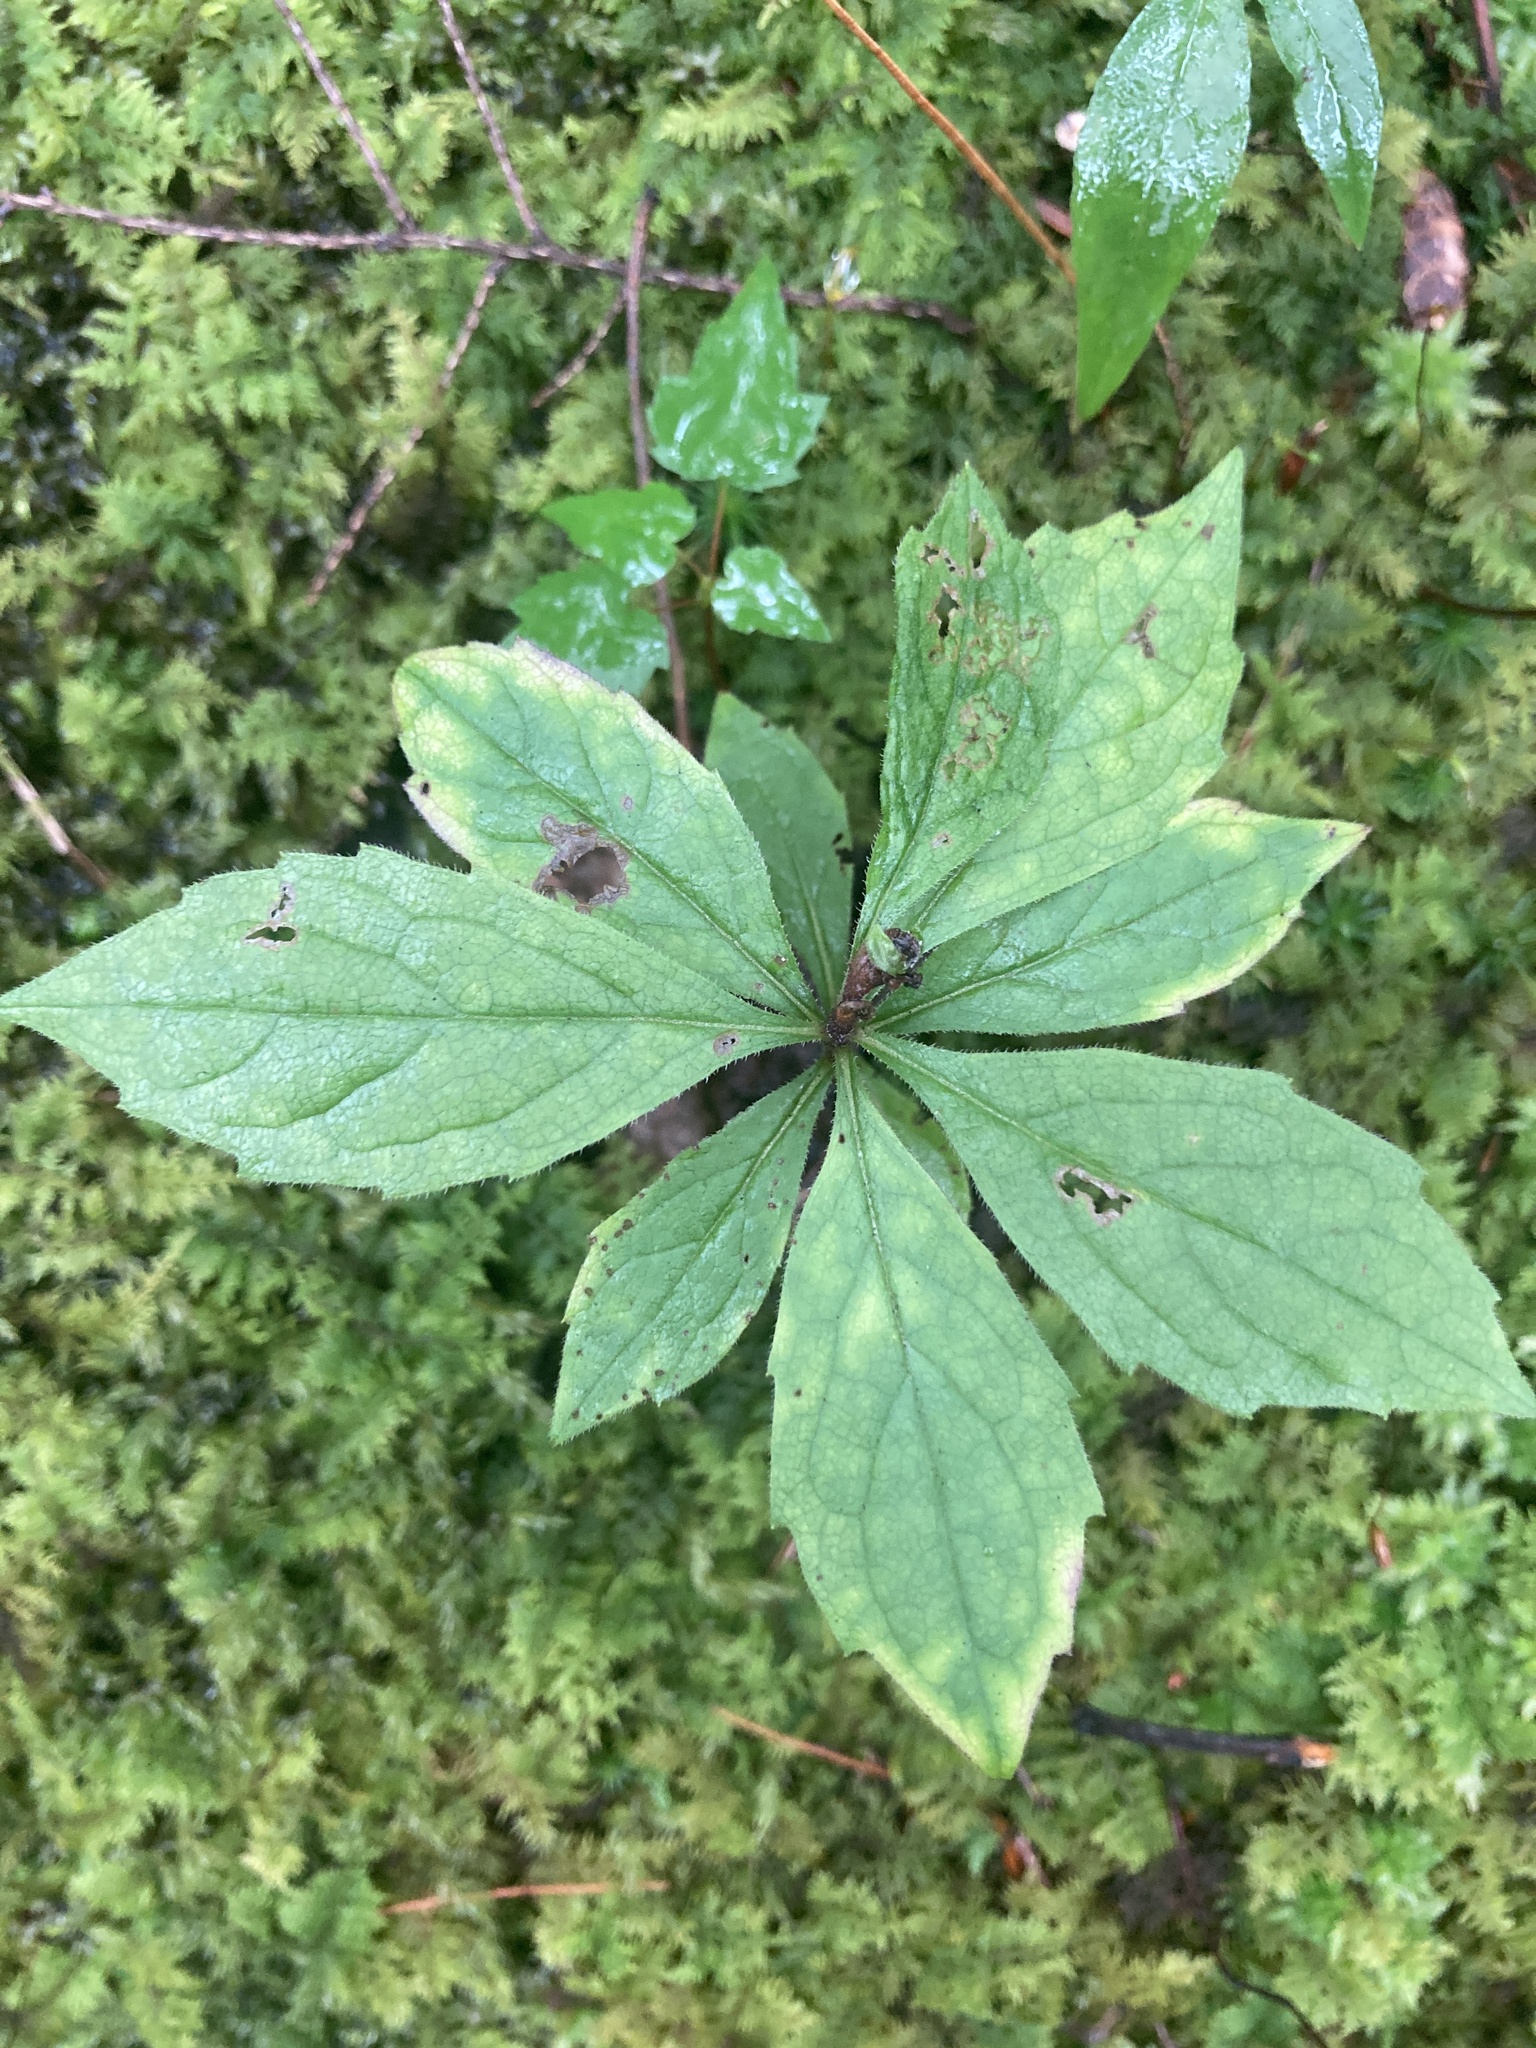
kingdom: Plantae
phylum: Tracheophyta
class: Magnoliopsida
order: Asterales
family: Asteraceae
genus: Oclemena
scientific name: Oclemena acuminata
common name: Mountain aster
